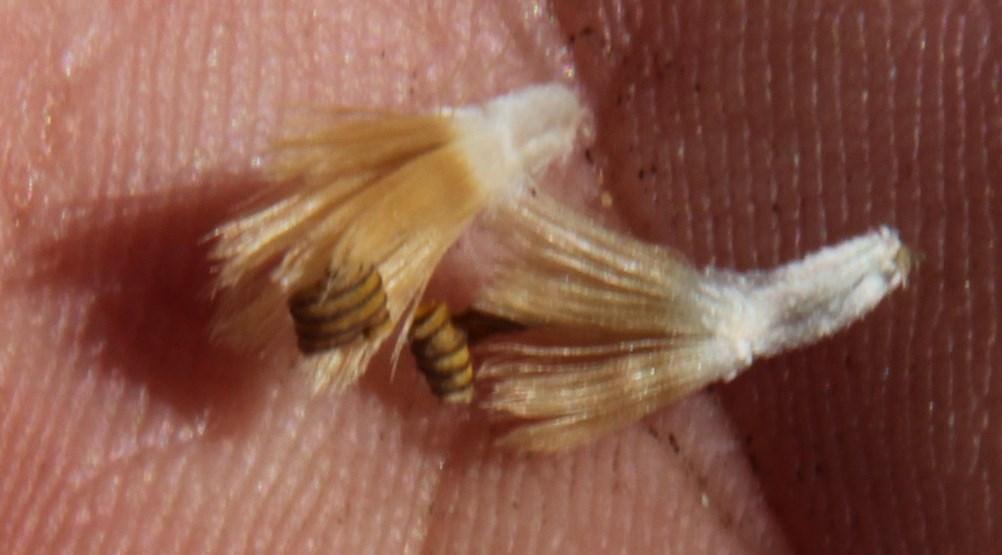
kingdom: Plantae
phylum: Tracheophyta
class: Magnoliopsida
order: Asterales
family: Asteraceae
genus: Othonna
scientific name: Othonna heterophylla
